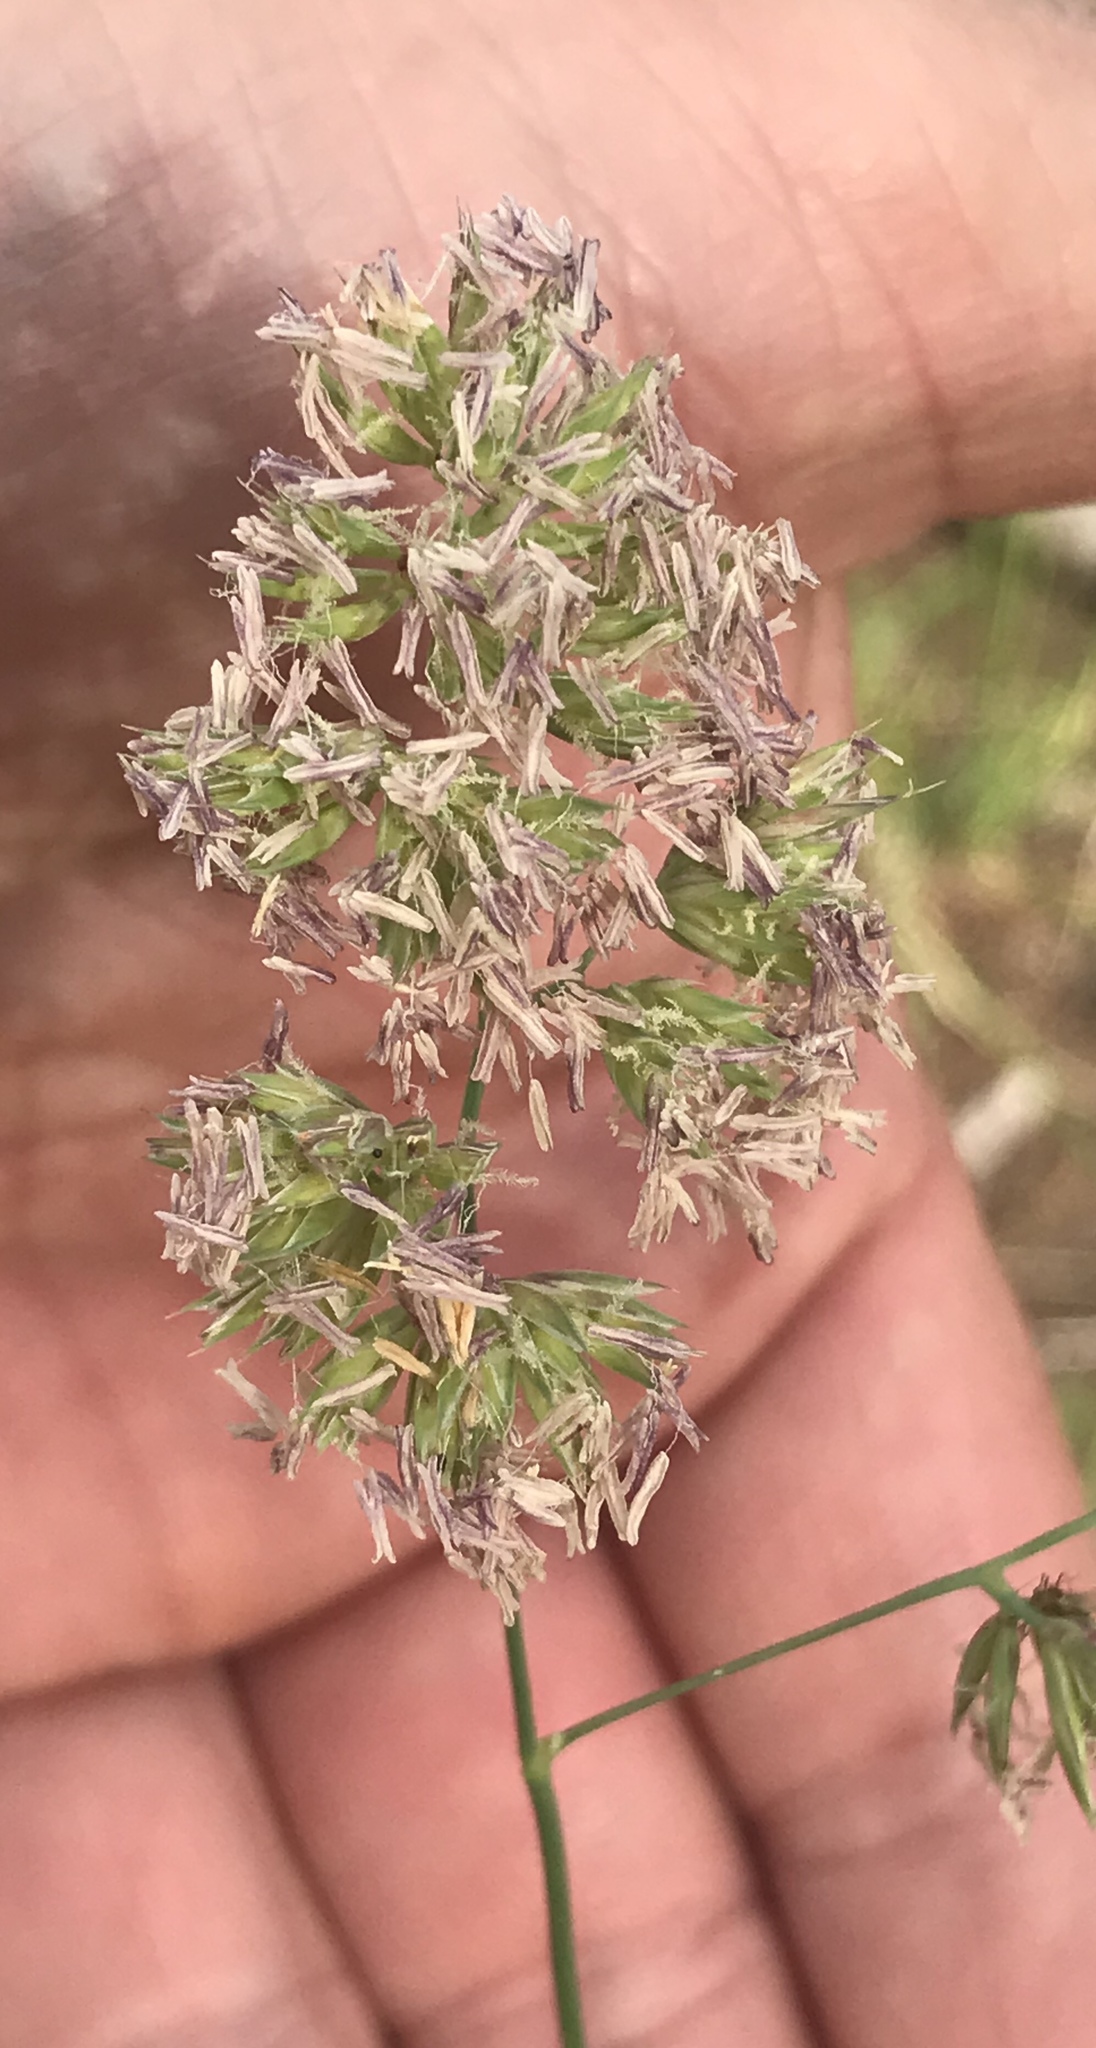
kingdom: Plantae
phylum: Tracheophyta
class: Liliopsida
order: Poales
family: Poaceae
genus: Dactylis
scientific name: Dactylis glomerata
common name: Orchardgrass
